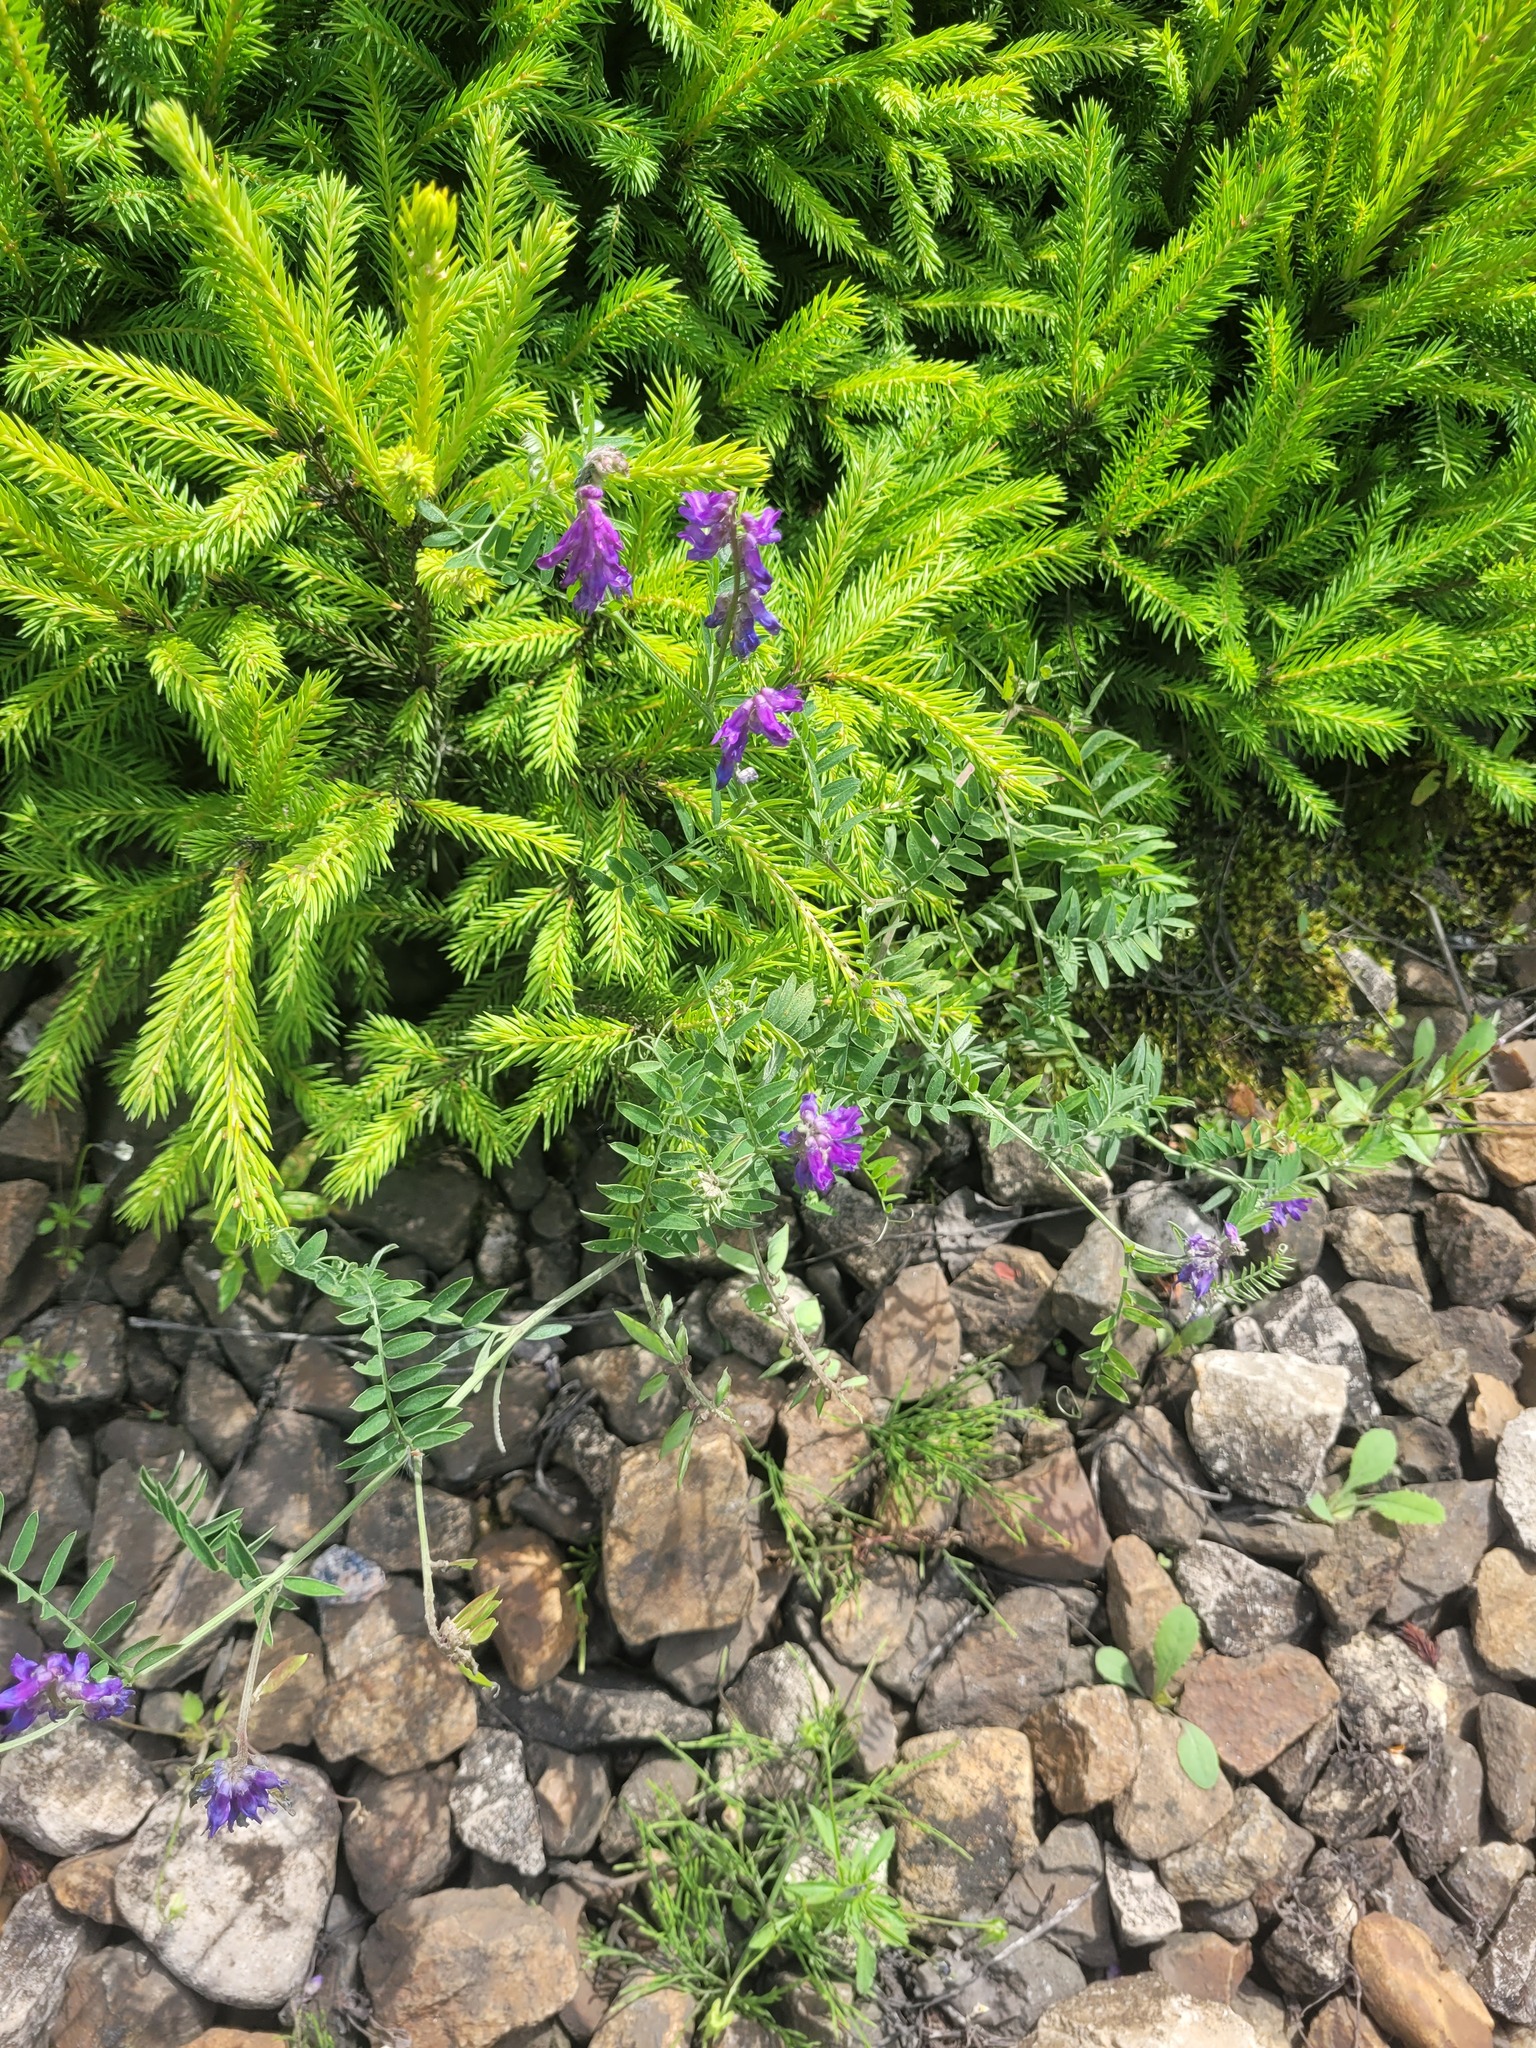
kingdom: Plantae
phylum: Tracheophyta
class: Magnoliopsida
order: Fabales
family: Fabaceae
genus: Vicia
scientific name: Vicia cracca
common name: Bird vetch
